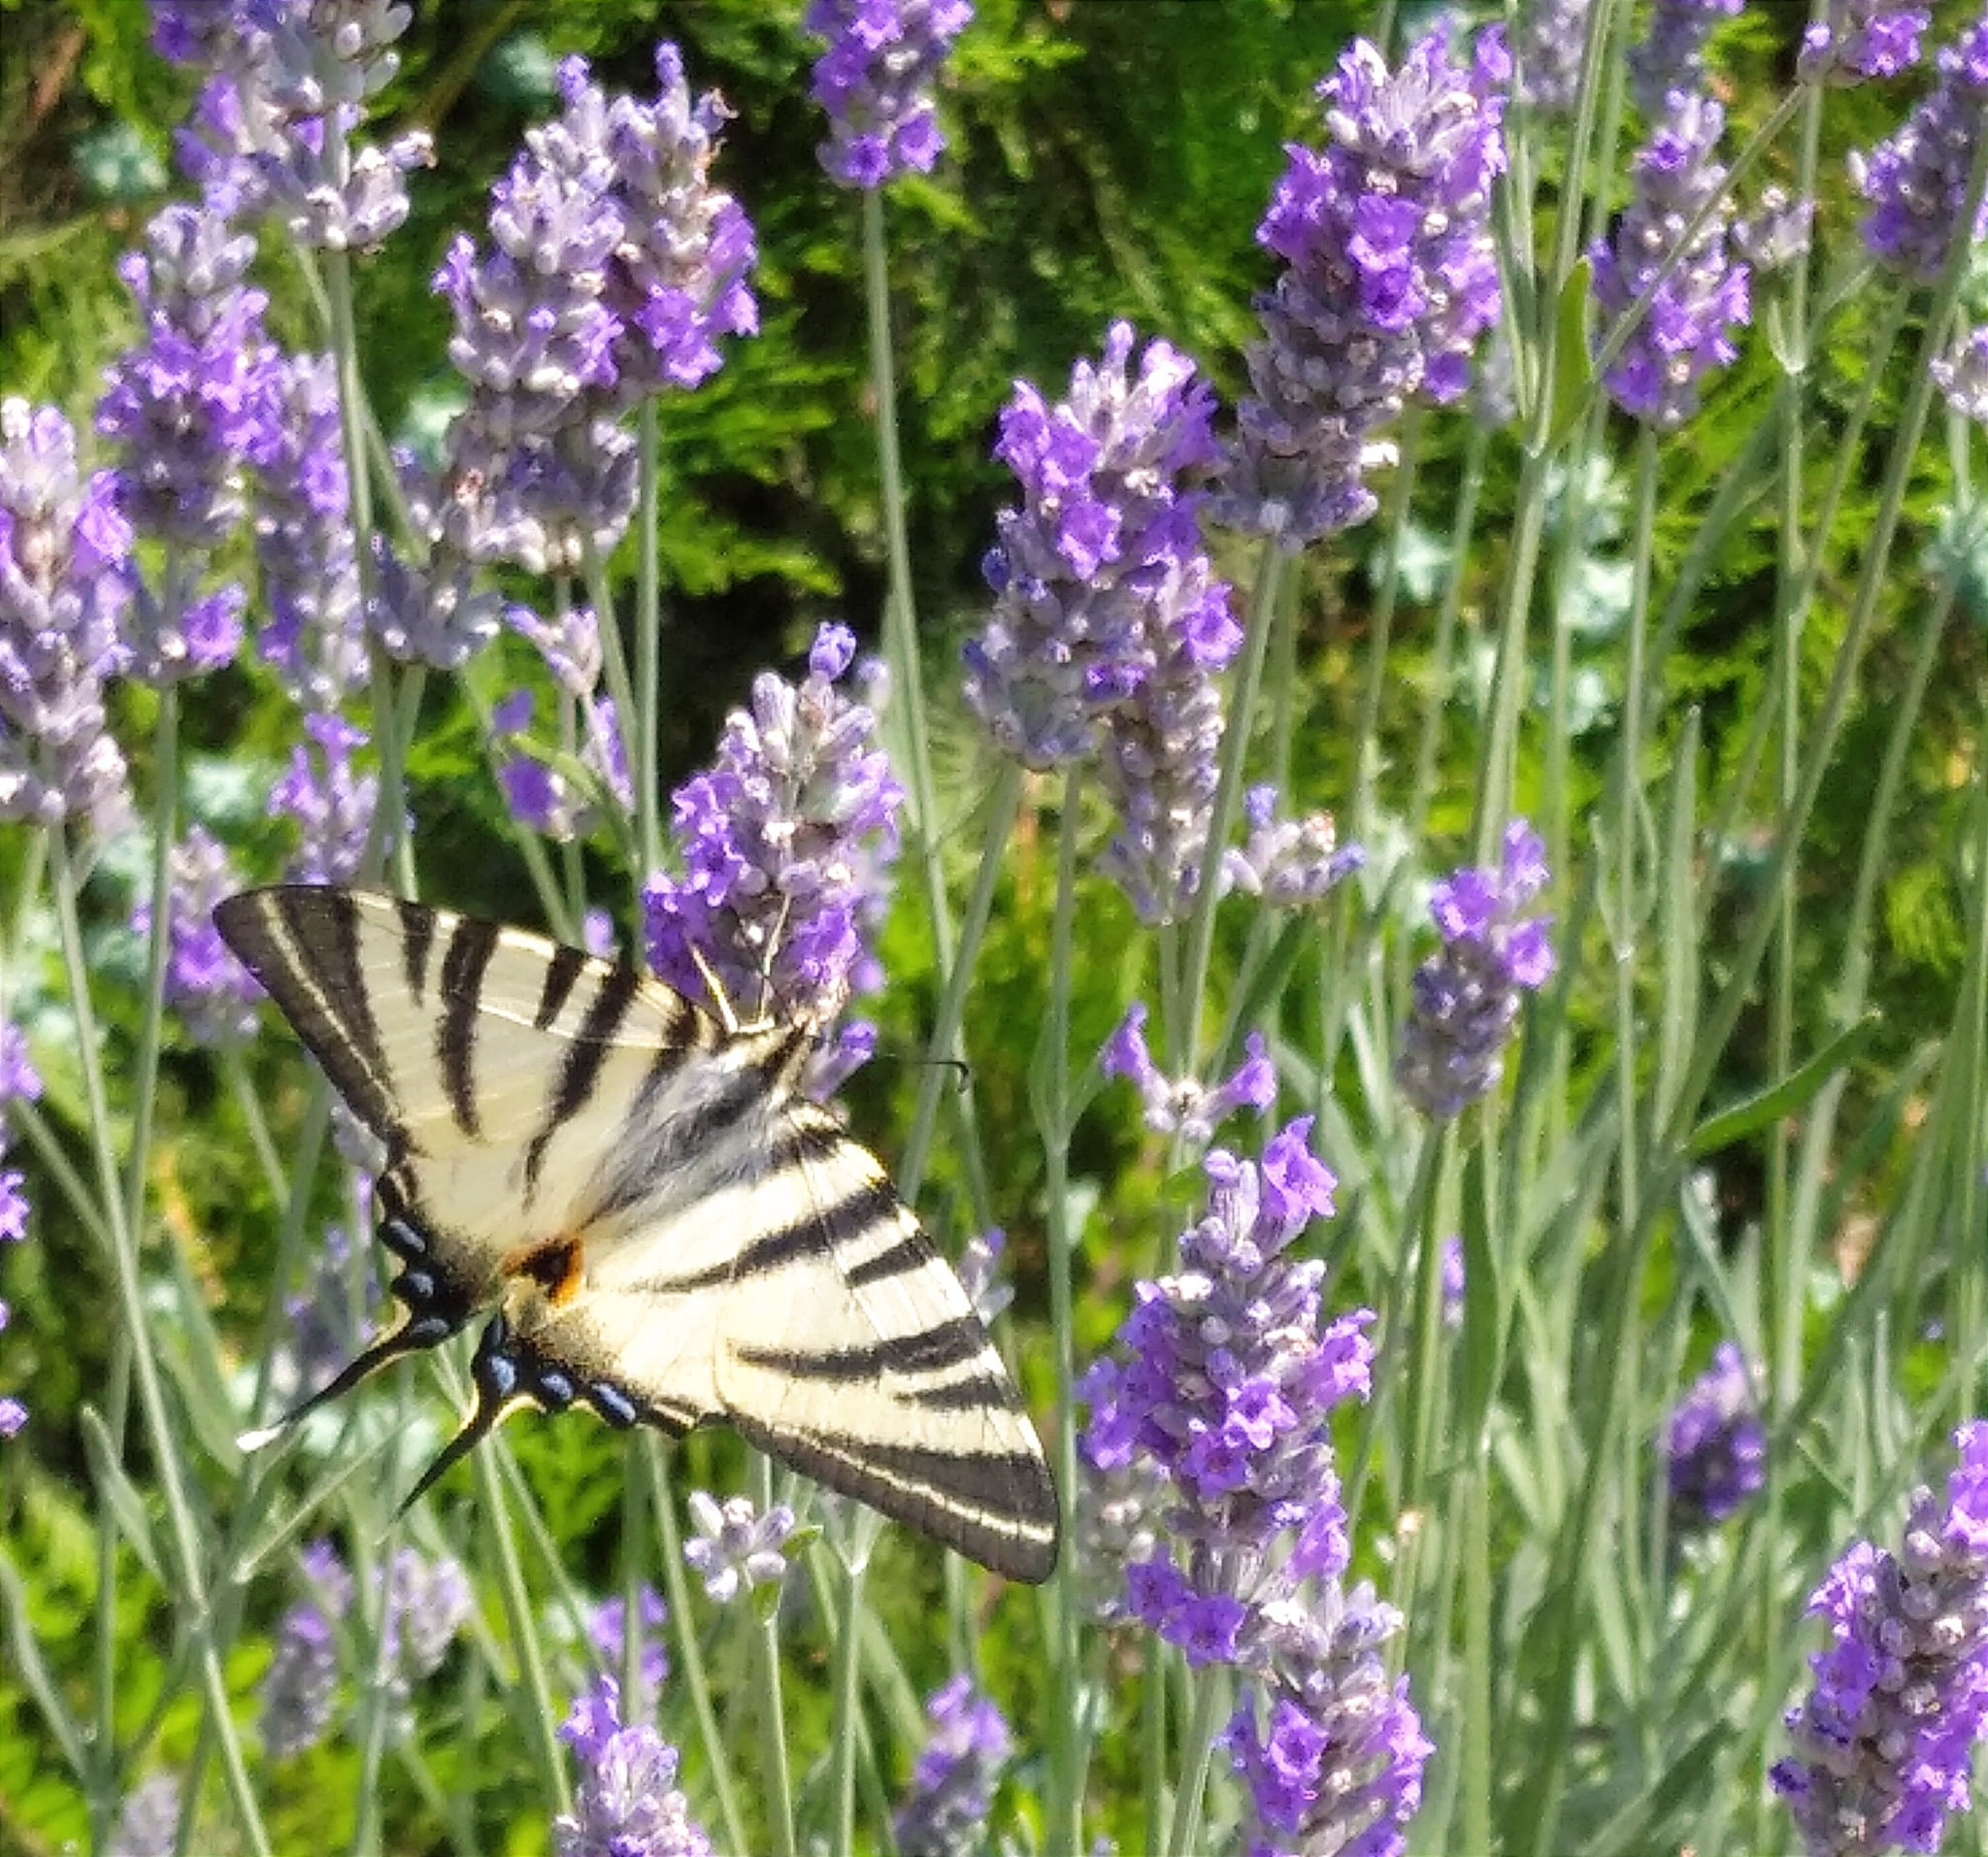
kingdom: Animalia
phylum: Arthropoda
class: Insecta
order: Lepidoptera
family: Papilionidae
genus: Iphiclides
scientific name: Iphiclides podalirius
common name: Scarce swallowtail
